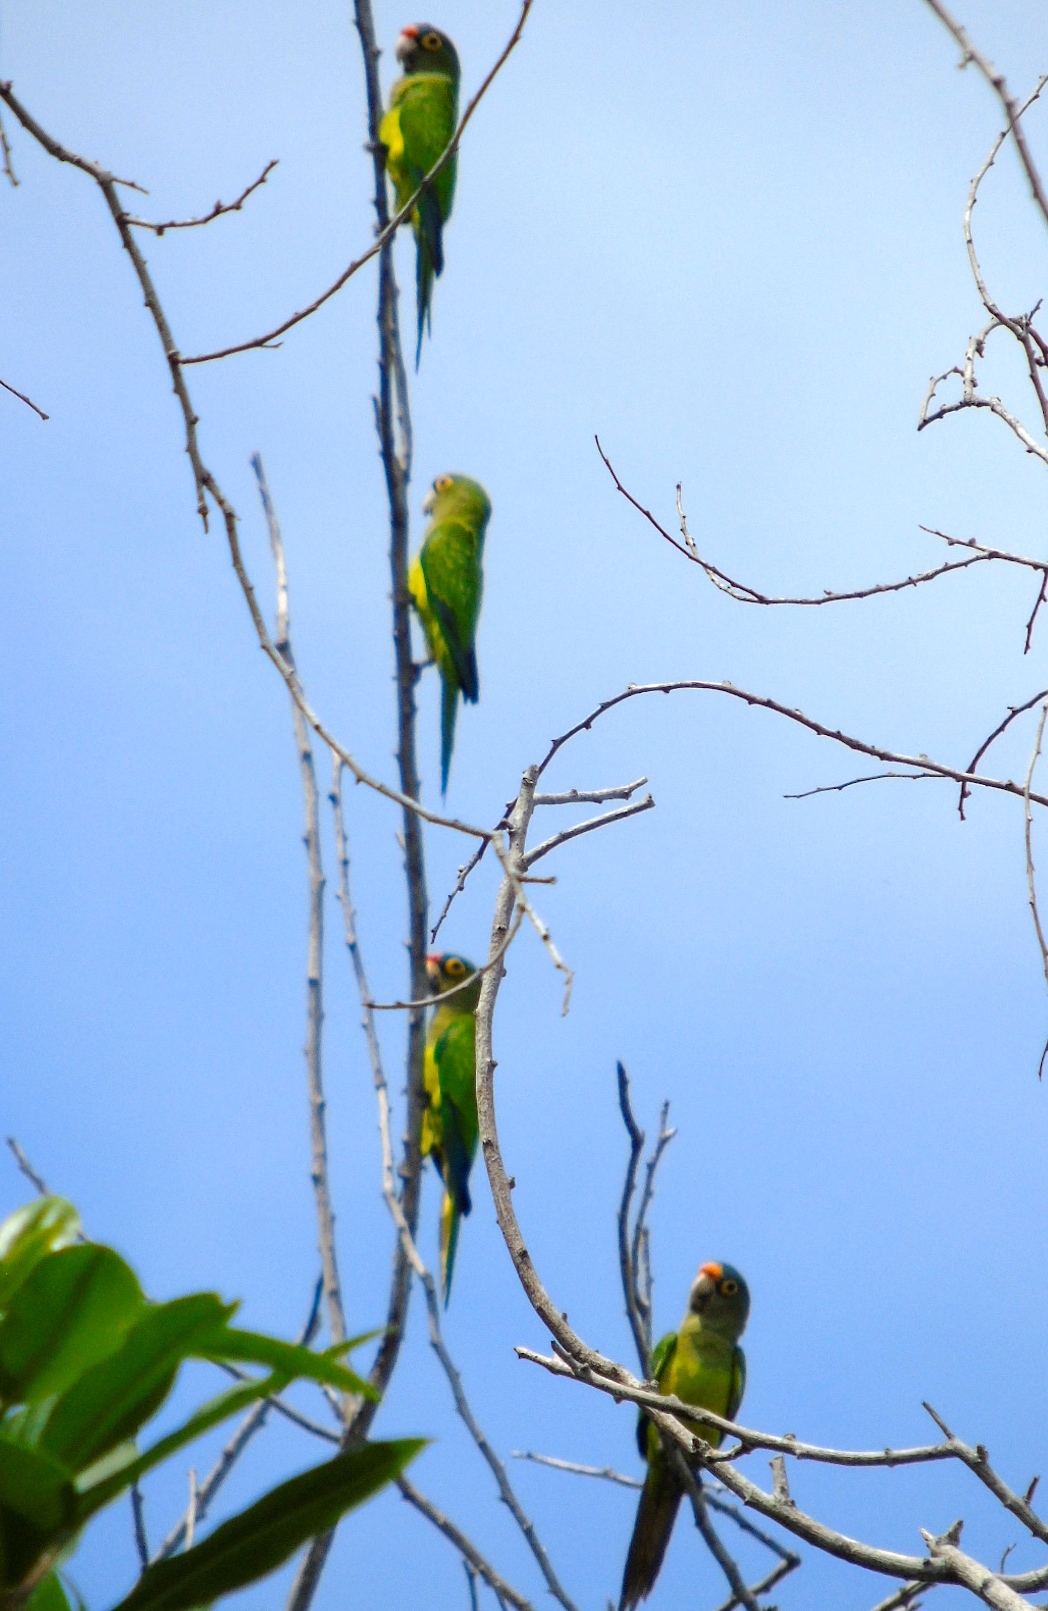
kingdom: Animalia
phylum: Chordata
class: Aves
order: Psittaciformes
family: Psittacidae
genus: Aratinga
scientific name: Aratinga canicularis
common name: Orange-fronted parakeet
